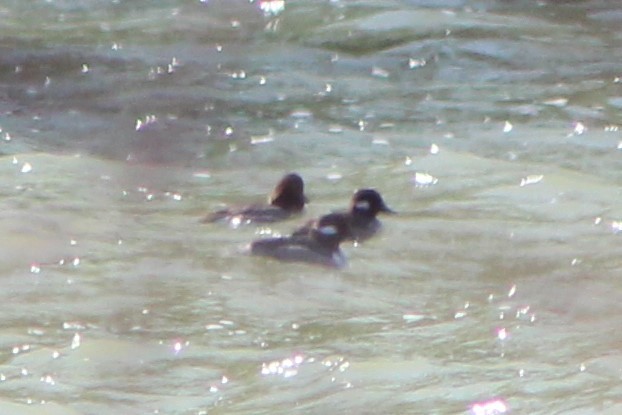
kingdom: Animalia
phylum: Chordata
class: Aves
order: Anseriformes
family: Anatidae
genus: Bucephala
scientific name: Bucephala albeola
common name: Bufflehead
